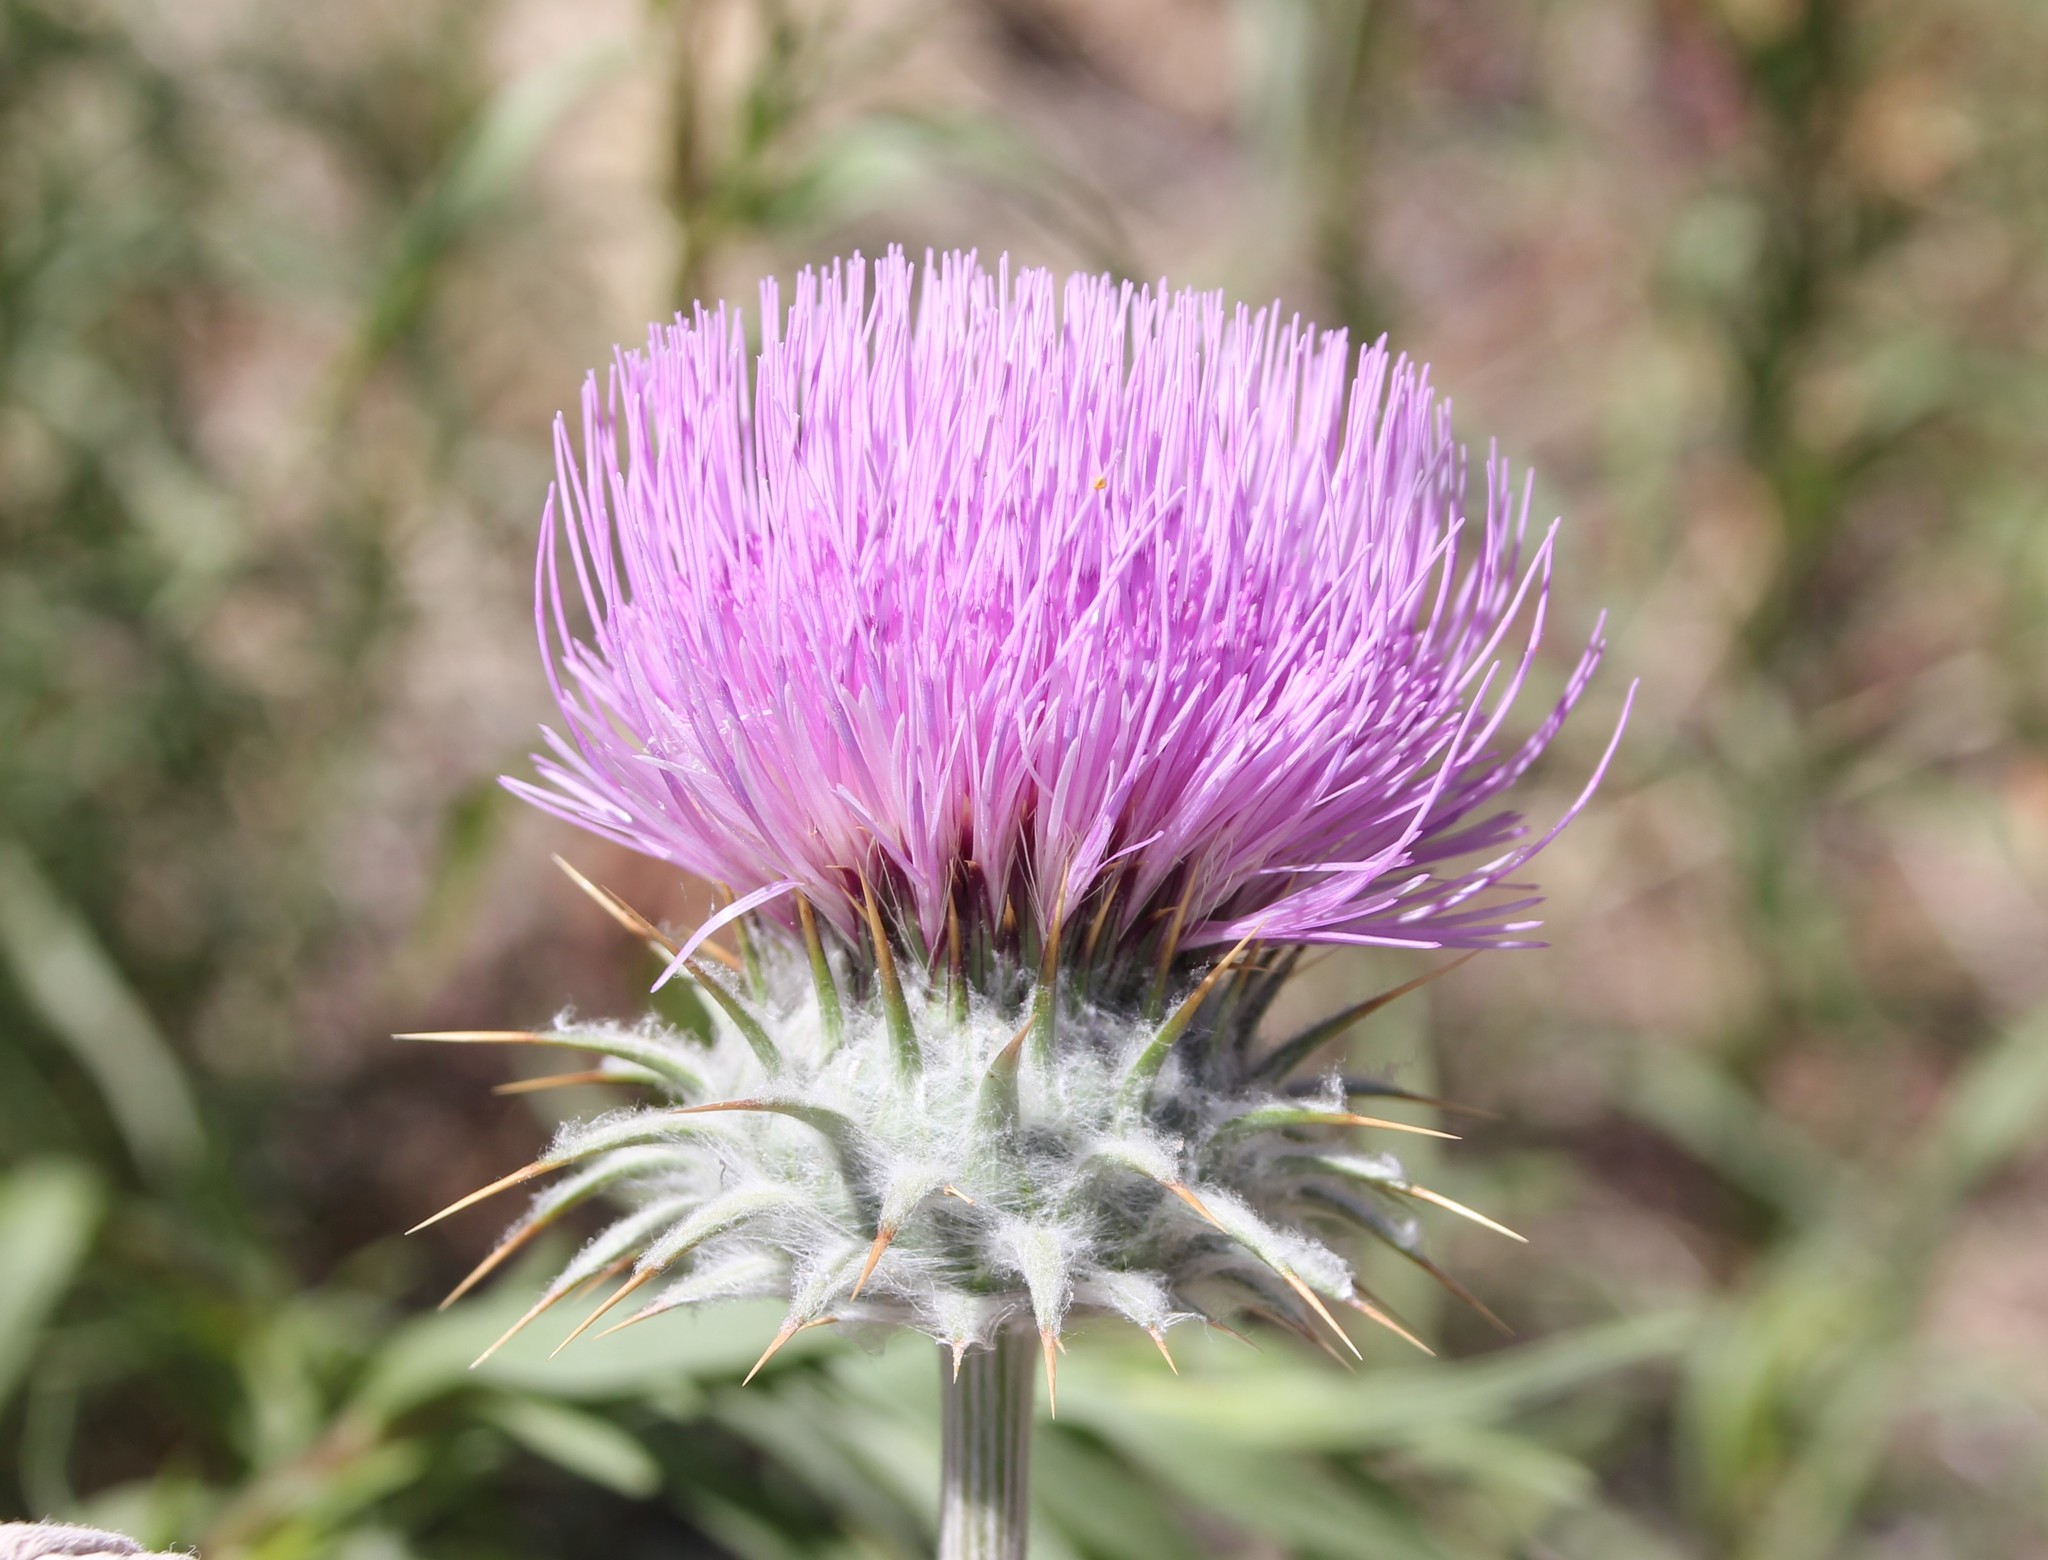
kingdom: Plantae
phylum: Tracheophyta
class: Magnoliopsida
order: Asterales
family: Asteraceae
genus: Cirsium
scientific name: Cirsium neomexicanum
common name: New mexico thistle
